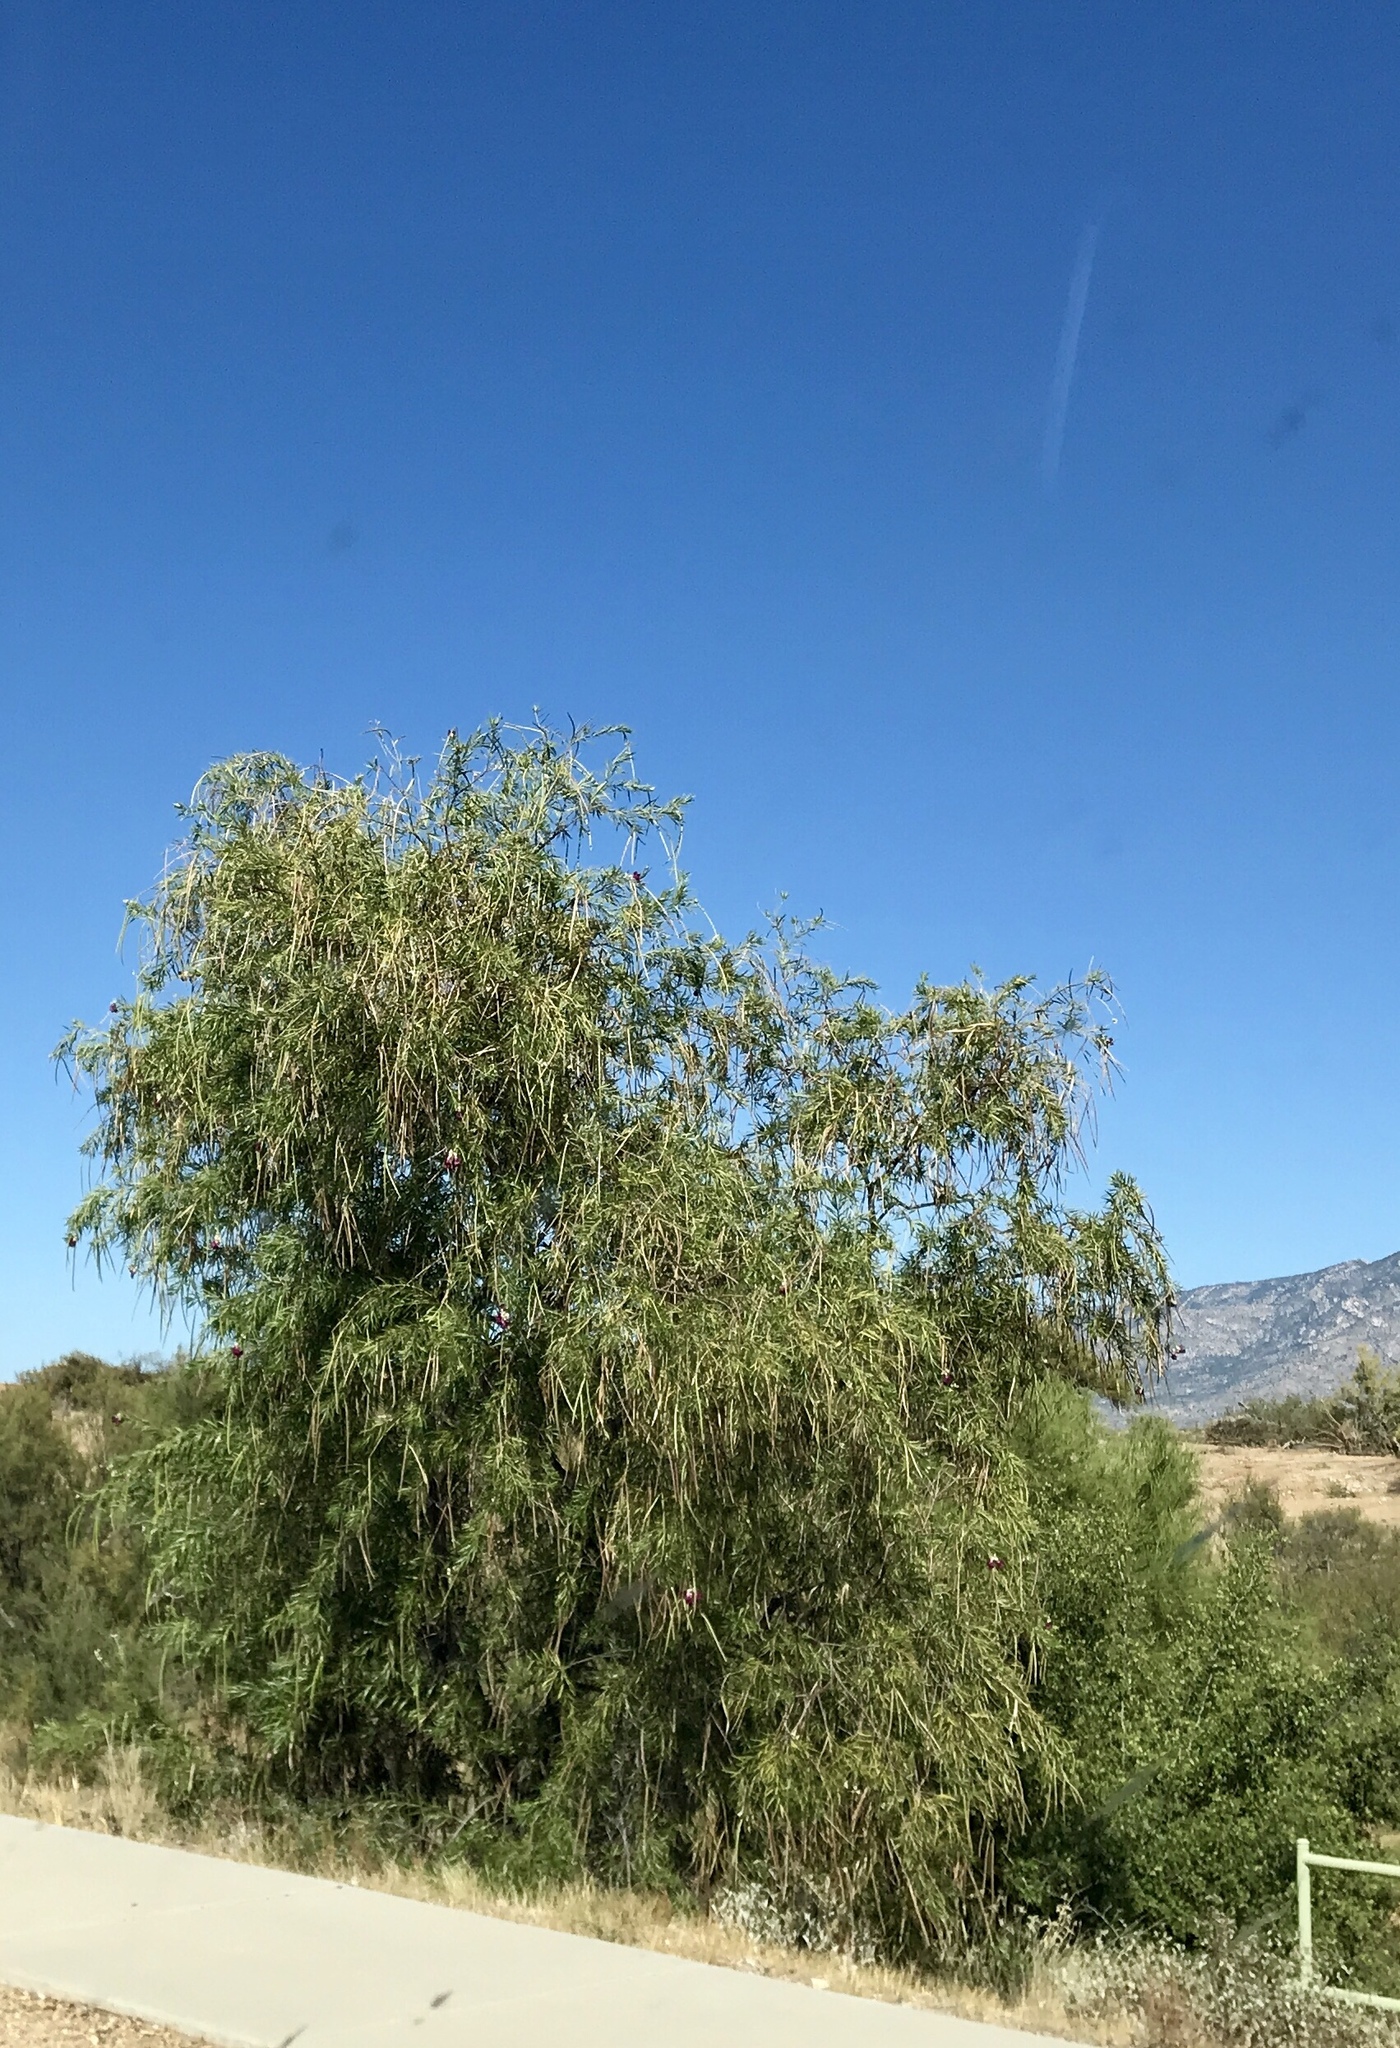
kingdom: Plantae
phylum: Tracheophyta
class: Magnoliopsida
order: Lamiales
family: Bignoniaceae
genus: Chilopsis
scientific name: Chilopsis linearis
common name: Desert-willow
